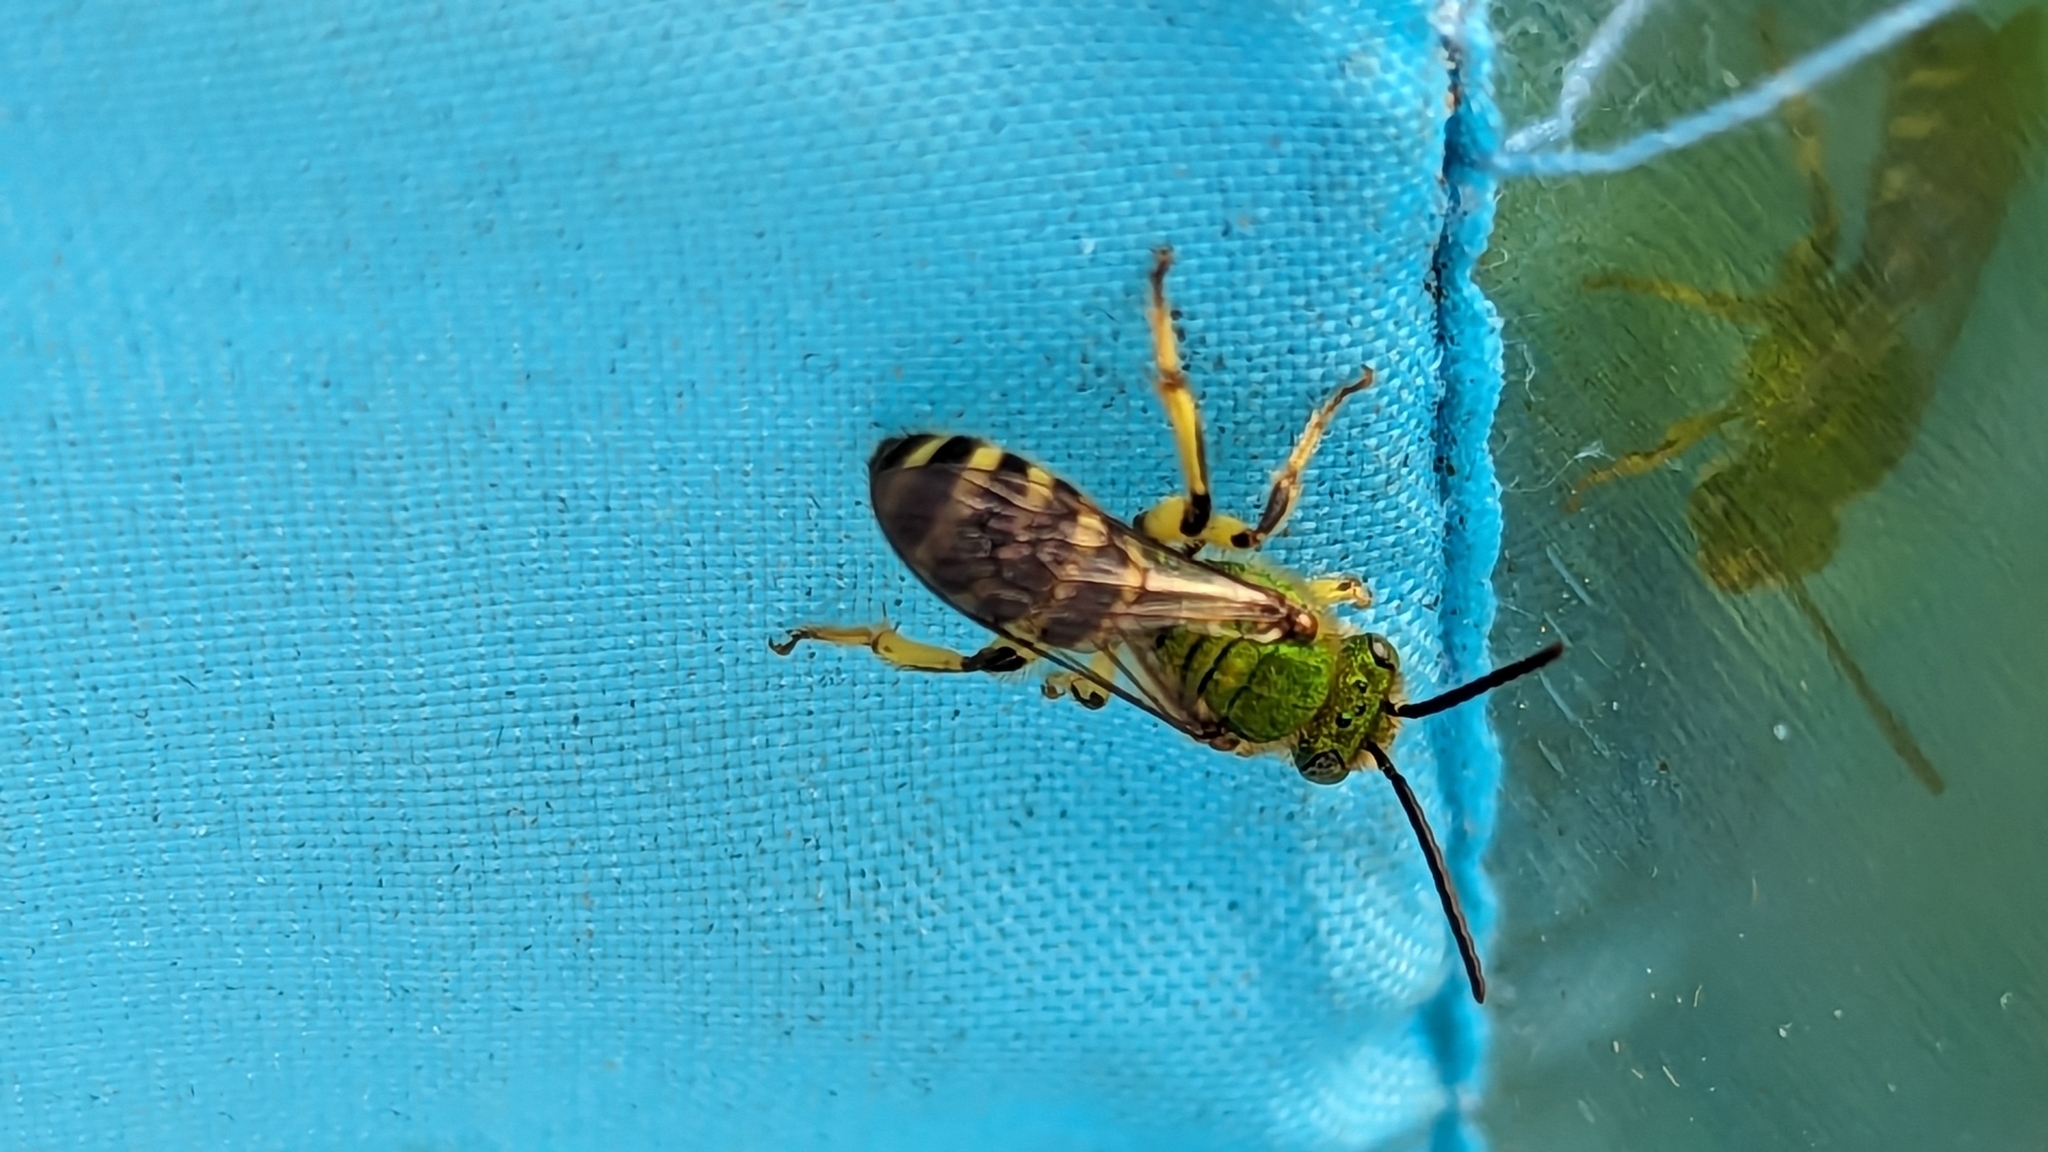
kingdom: Animalia
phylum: Arthropoda
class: Insecta
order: Hymenoptera
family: Halictidae
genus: Agapostemon
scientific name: Agapostemon
